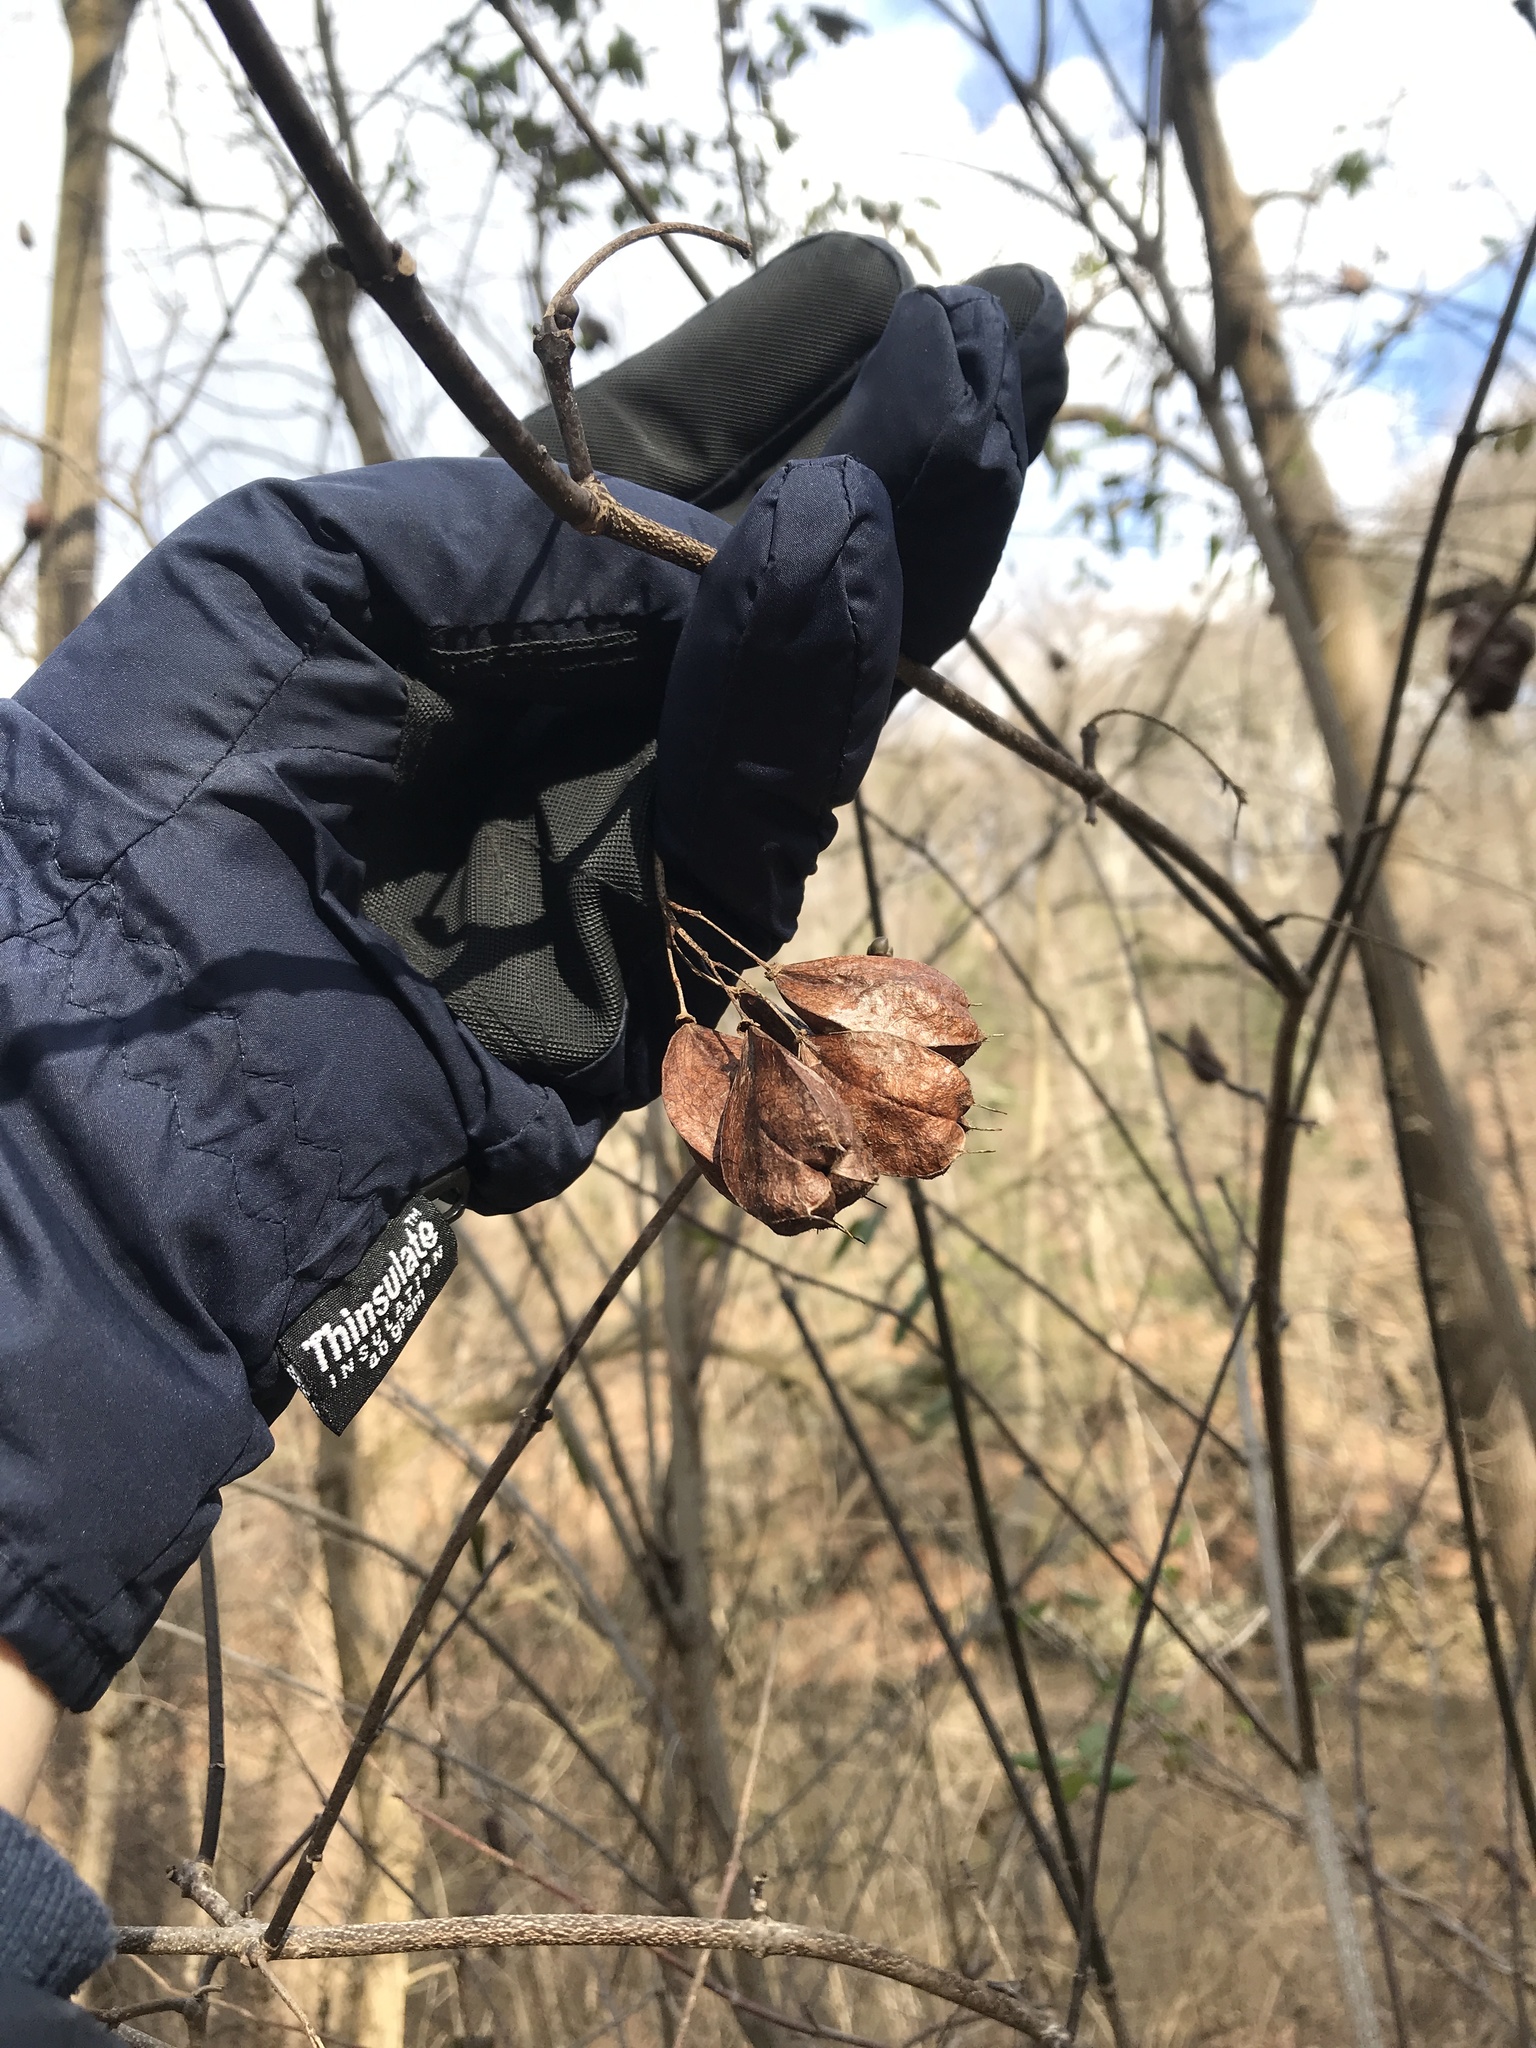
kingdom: Plantae
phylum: Tracheophyta
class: Magnoliopsida
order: Crossosomatales
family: Staphyleaceae
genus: Staphylea
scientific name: Staphylea trifolia
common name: American bladdernut
